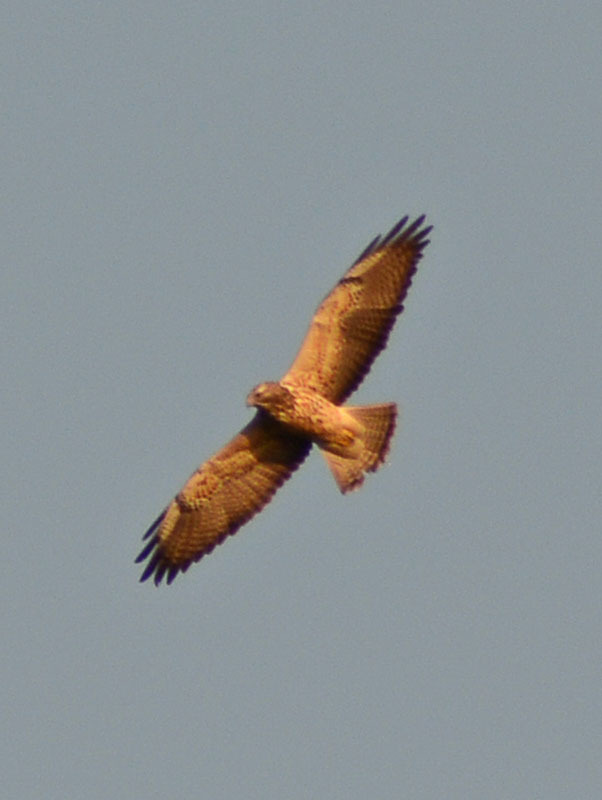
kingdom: Animalia
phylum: Chordata
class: Aves
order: Accipitriformes
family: Accipitridae
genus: Buteo
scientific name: Buteo swainsoni
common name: Swainson's hawk
